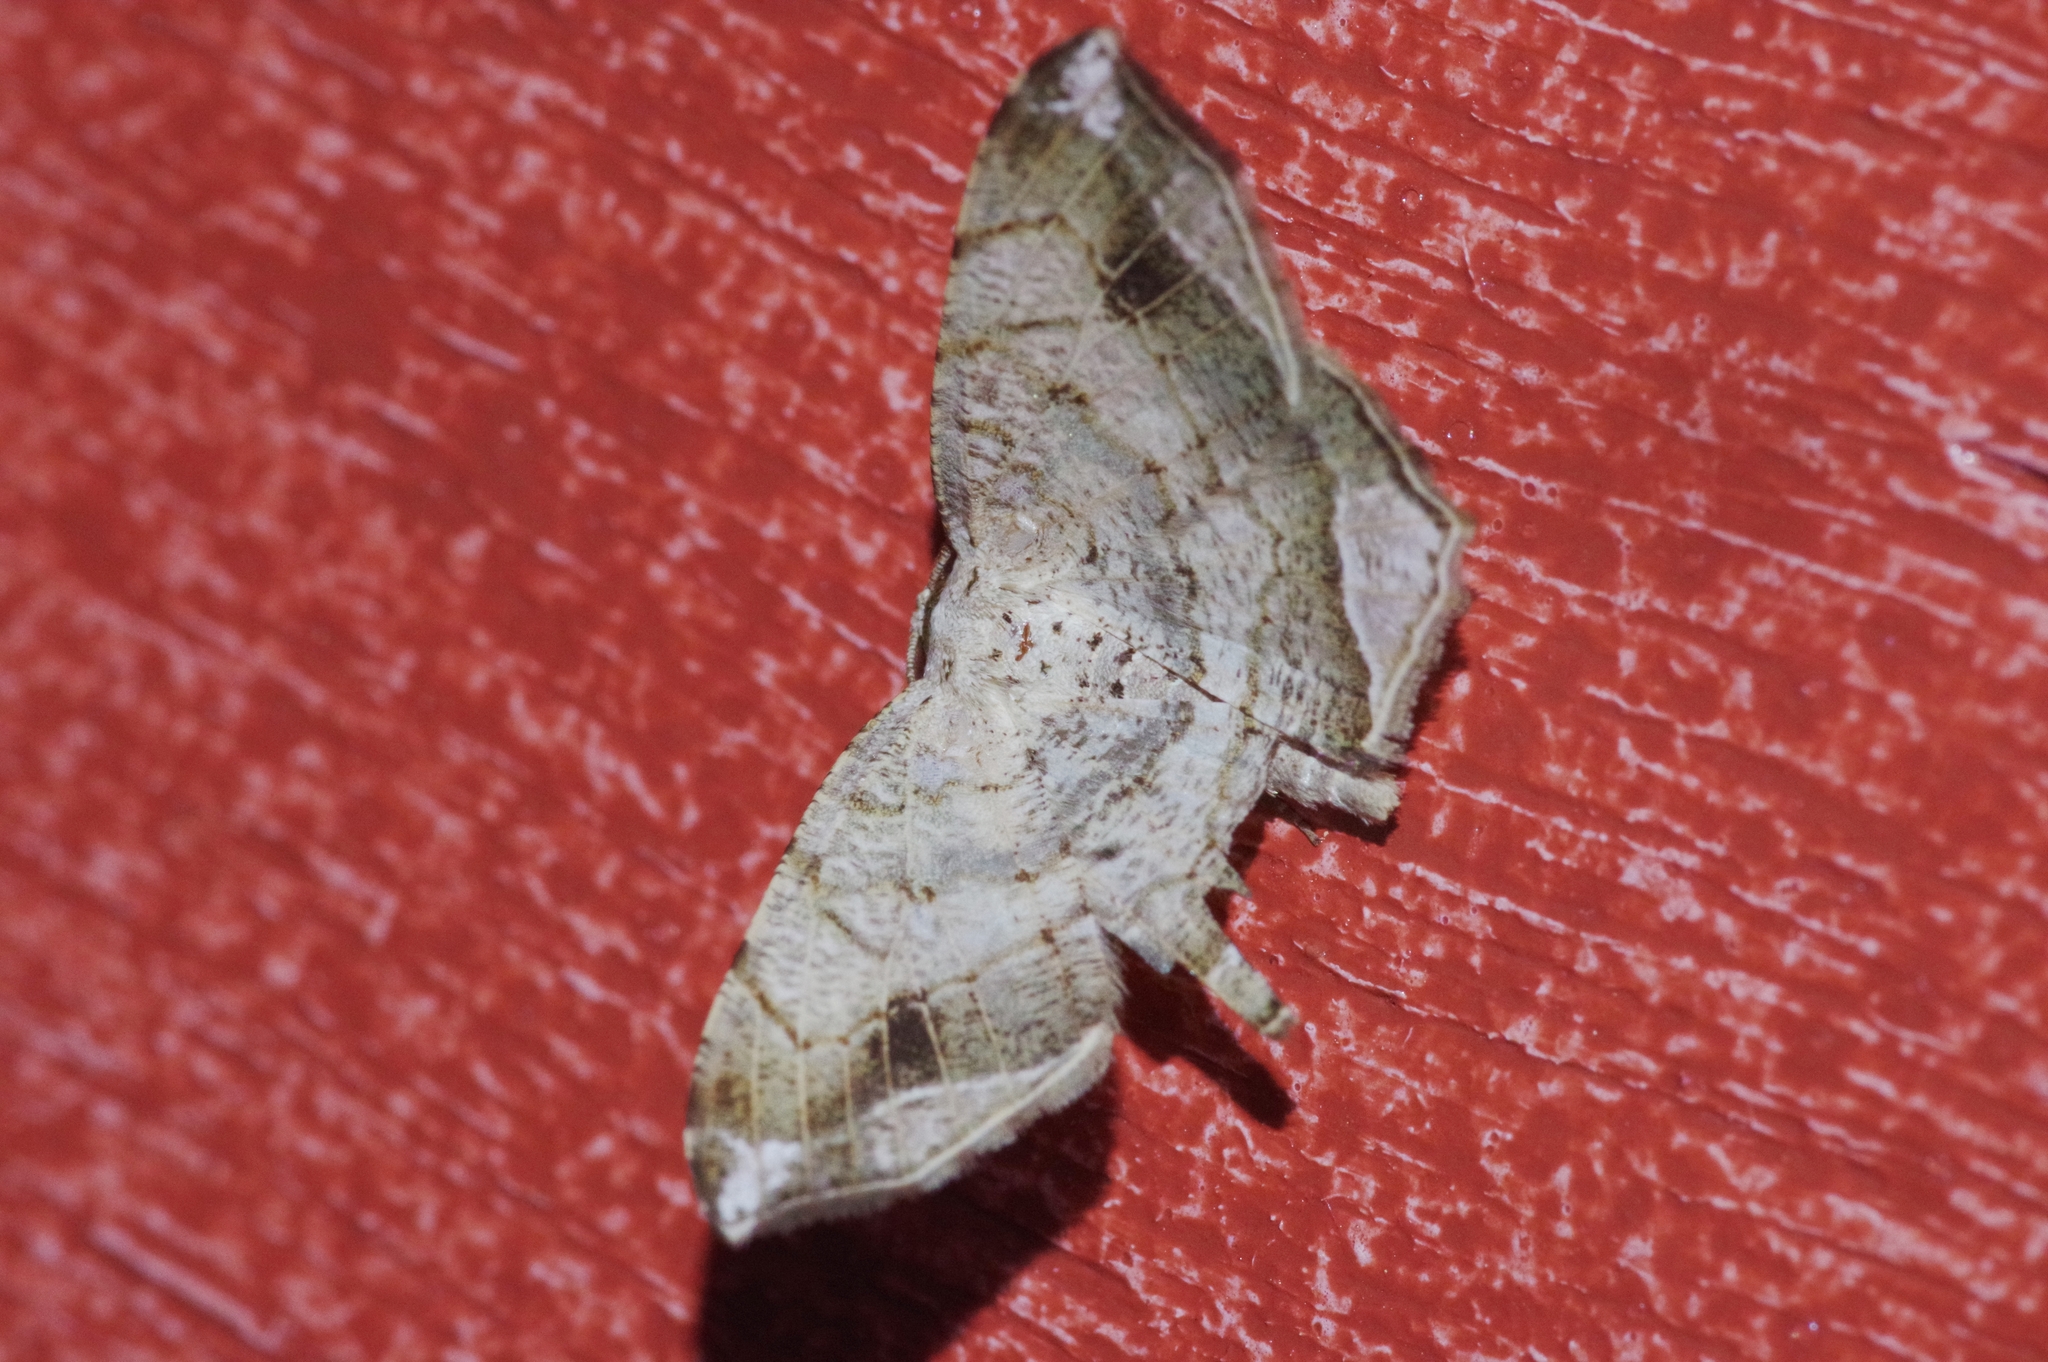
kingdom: Animalia
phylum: Arthropoda
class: Insecta
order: Lepidoptera
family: Geometridae
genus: Chiasmia
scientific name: Chiasmia emersaria
